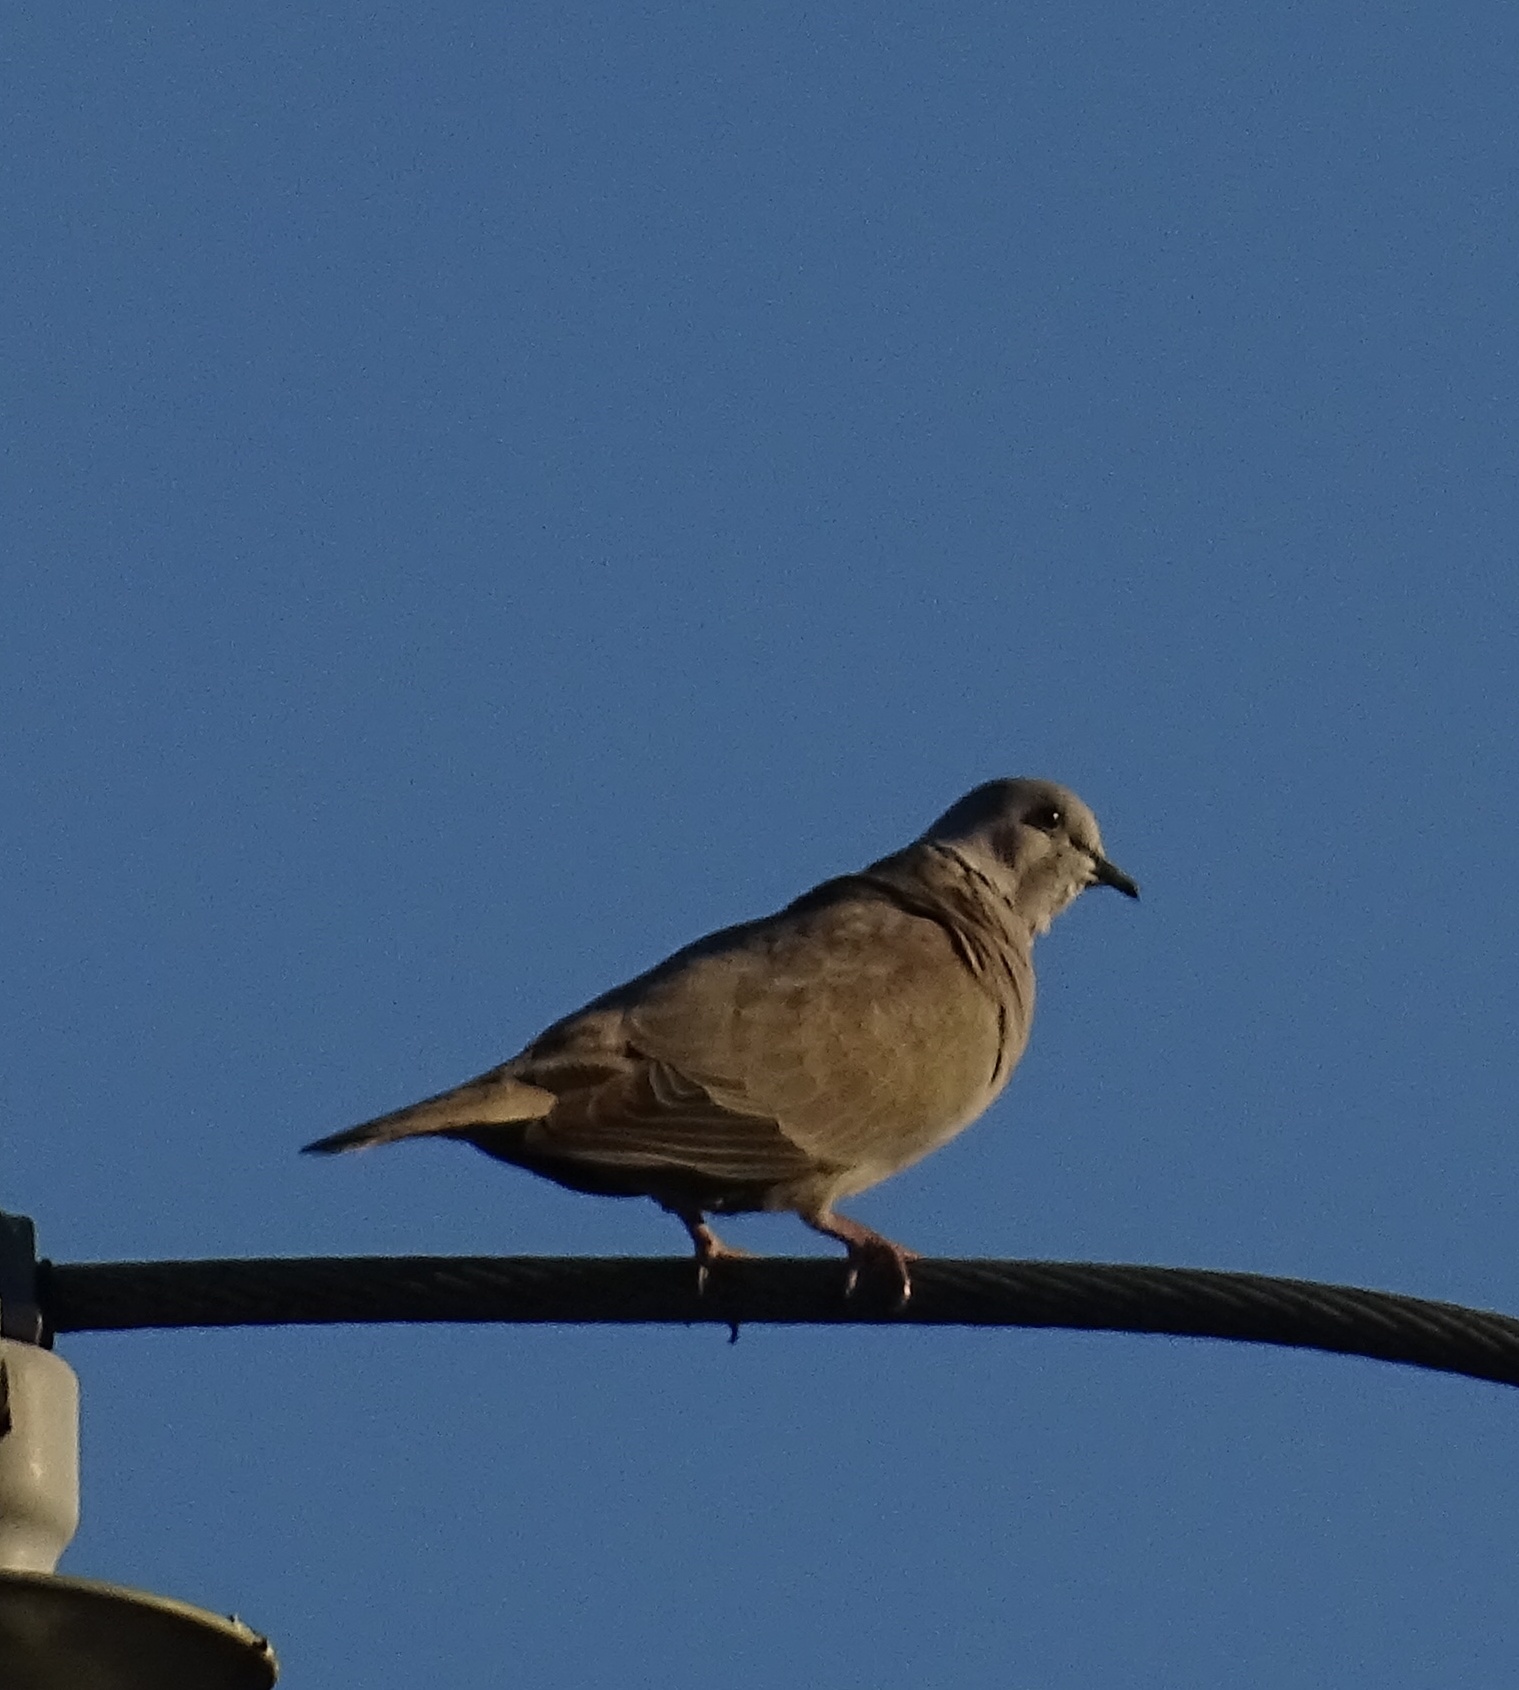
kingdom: Animalia
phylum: Chordata
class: Aves
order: Columbiformes
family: Columbidae
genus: Streptopelia
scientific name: Streptopelia decaocto
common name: Eurasian collared dove
